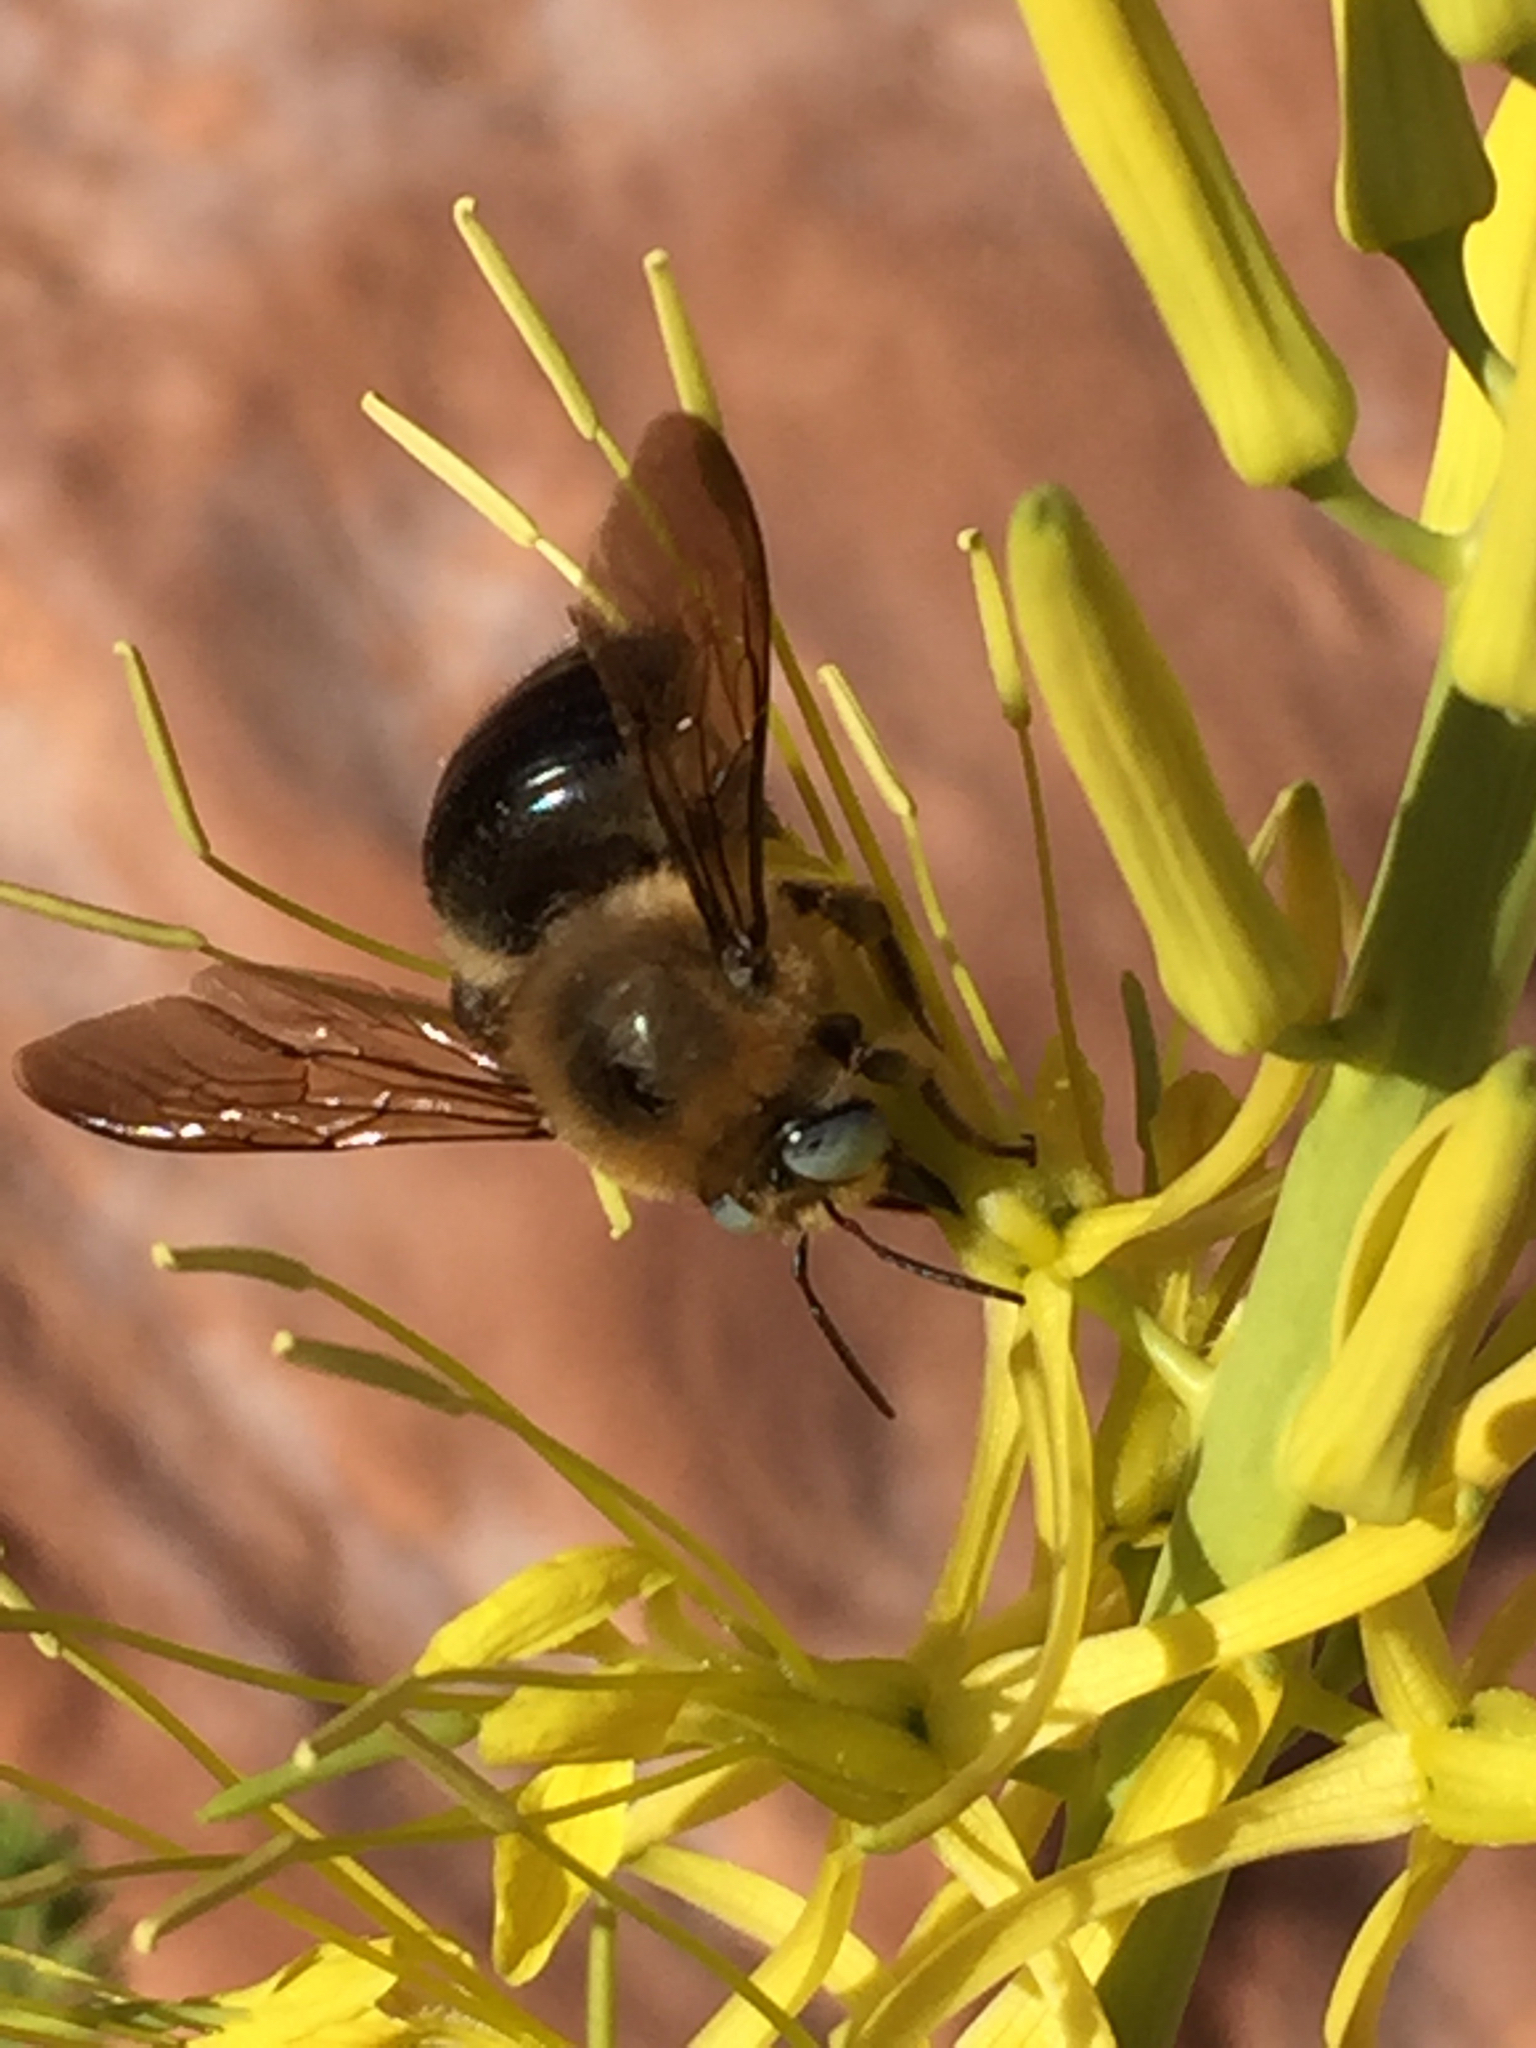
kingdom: Animalia
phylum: Arthropoda
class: Insecta
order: Hymenoptera
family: Apidae
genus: Xylocopa
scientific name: Xylocopa tabaniformis
